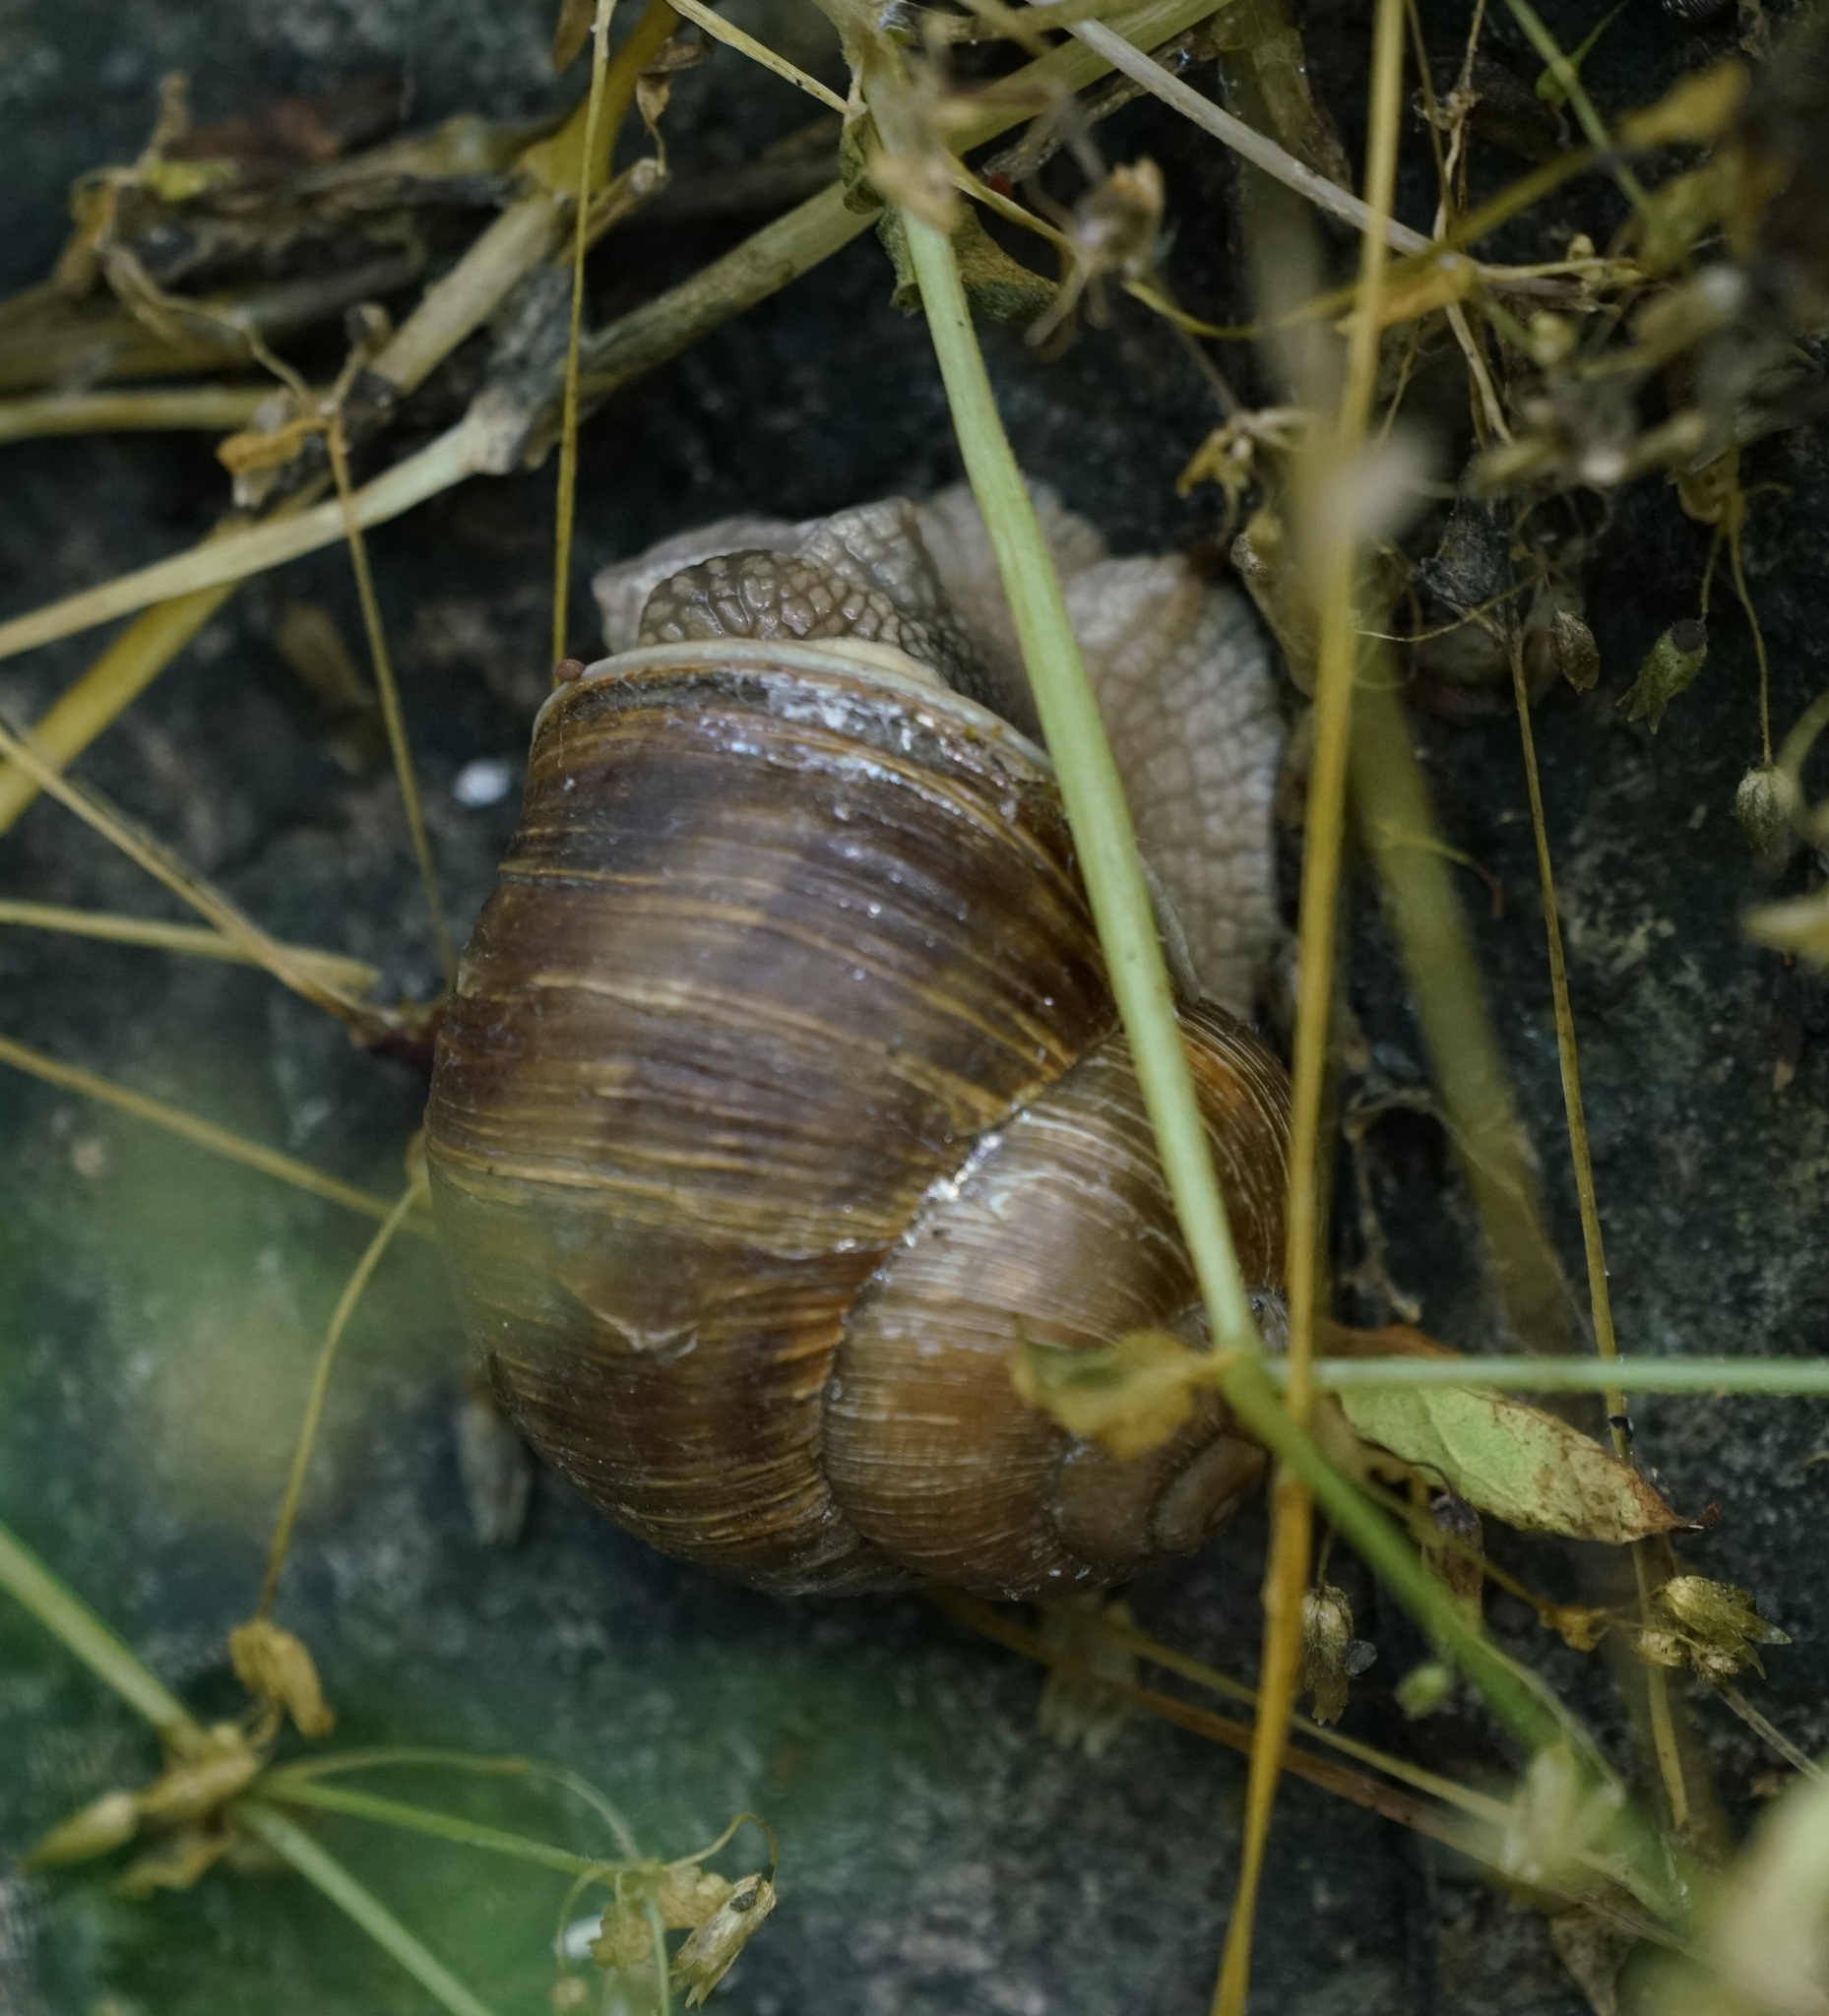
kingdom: Animalia
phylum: Mollusca
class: Gastropoda
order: Stylommatophora
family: Helicidae
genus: Helix
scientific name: Helix pomatia
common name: Roman snail
